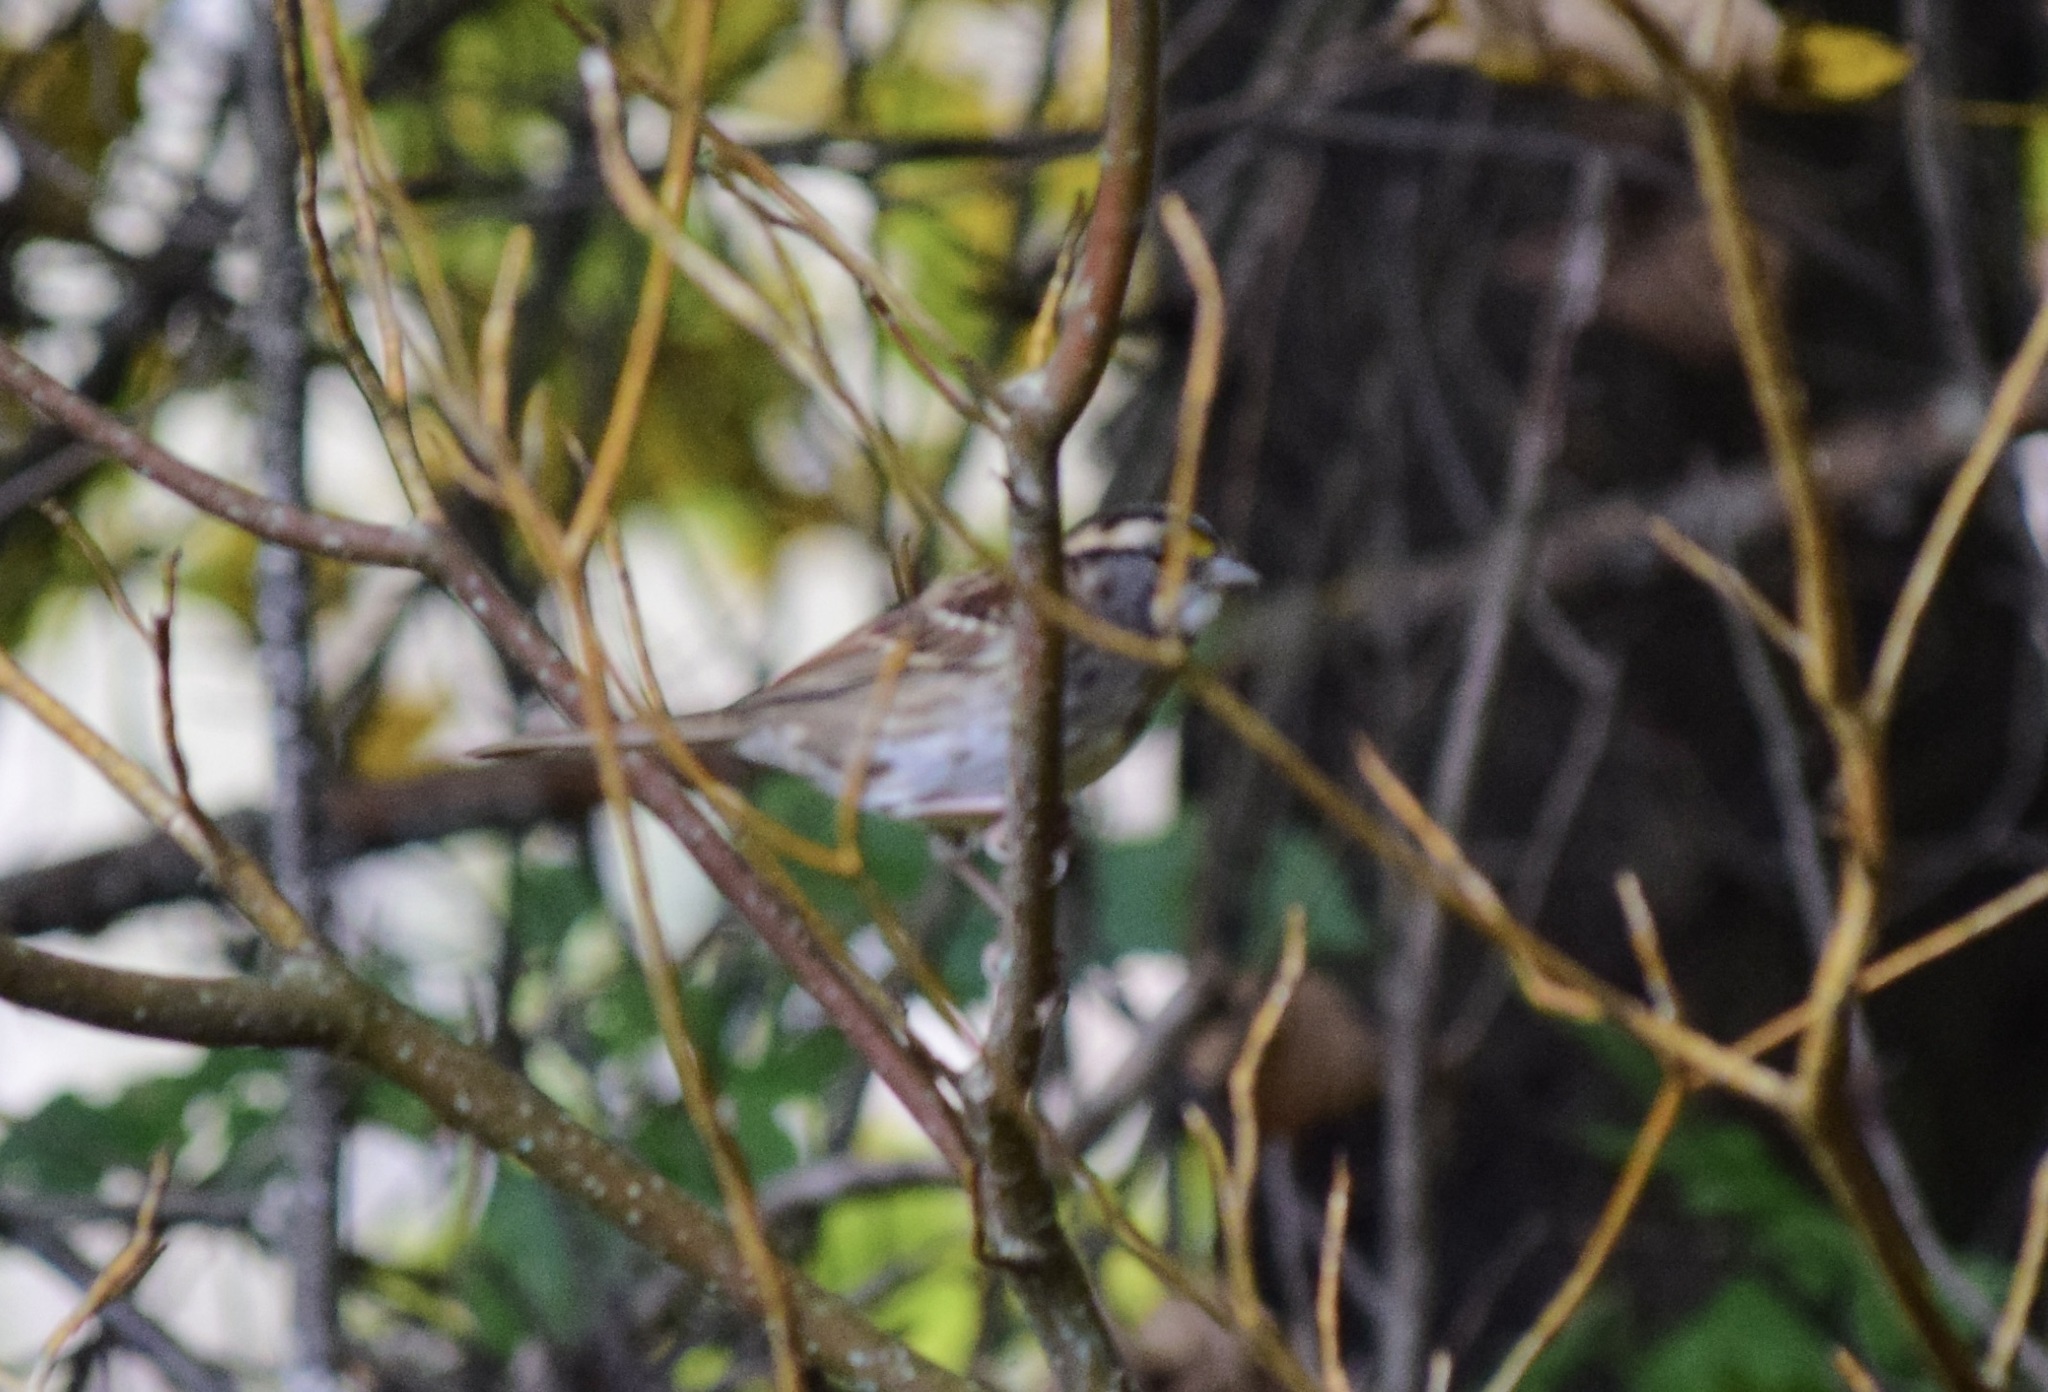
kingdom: Animalia
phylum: Chordata
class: Aves
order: Passeriformes
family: Passerellidae
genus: Zonotrichia
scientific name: Zonotrichia albicollis
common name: White-throated sparrow
